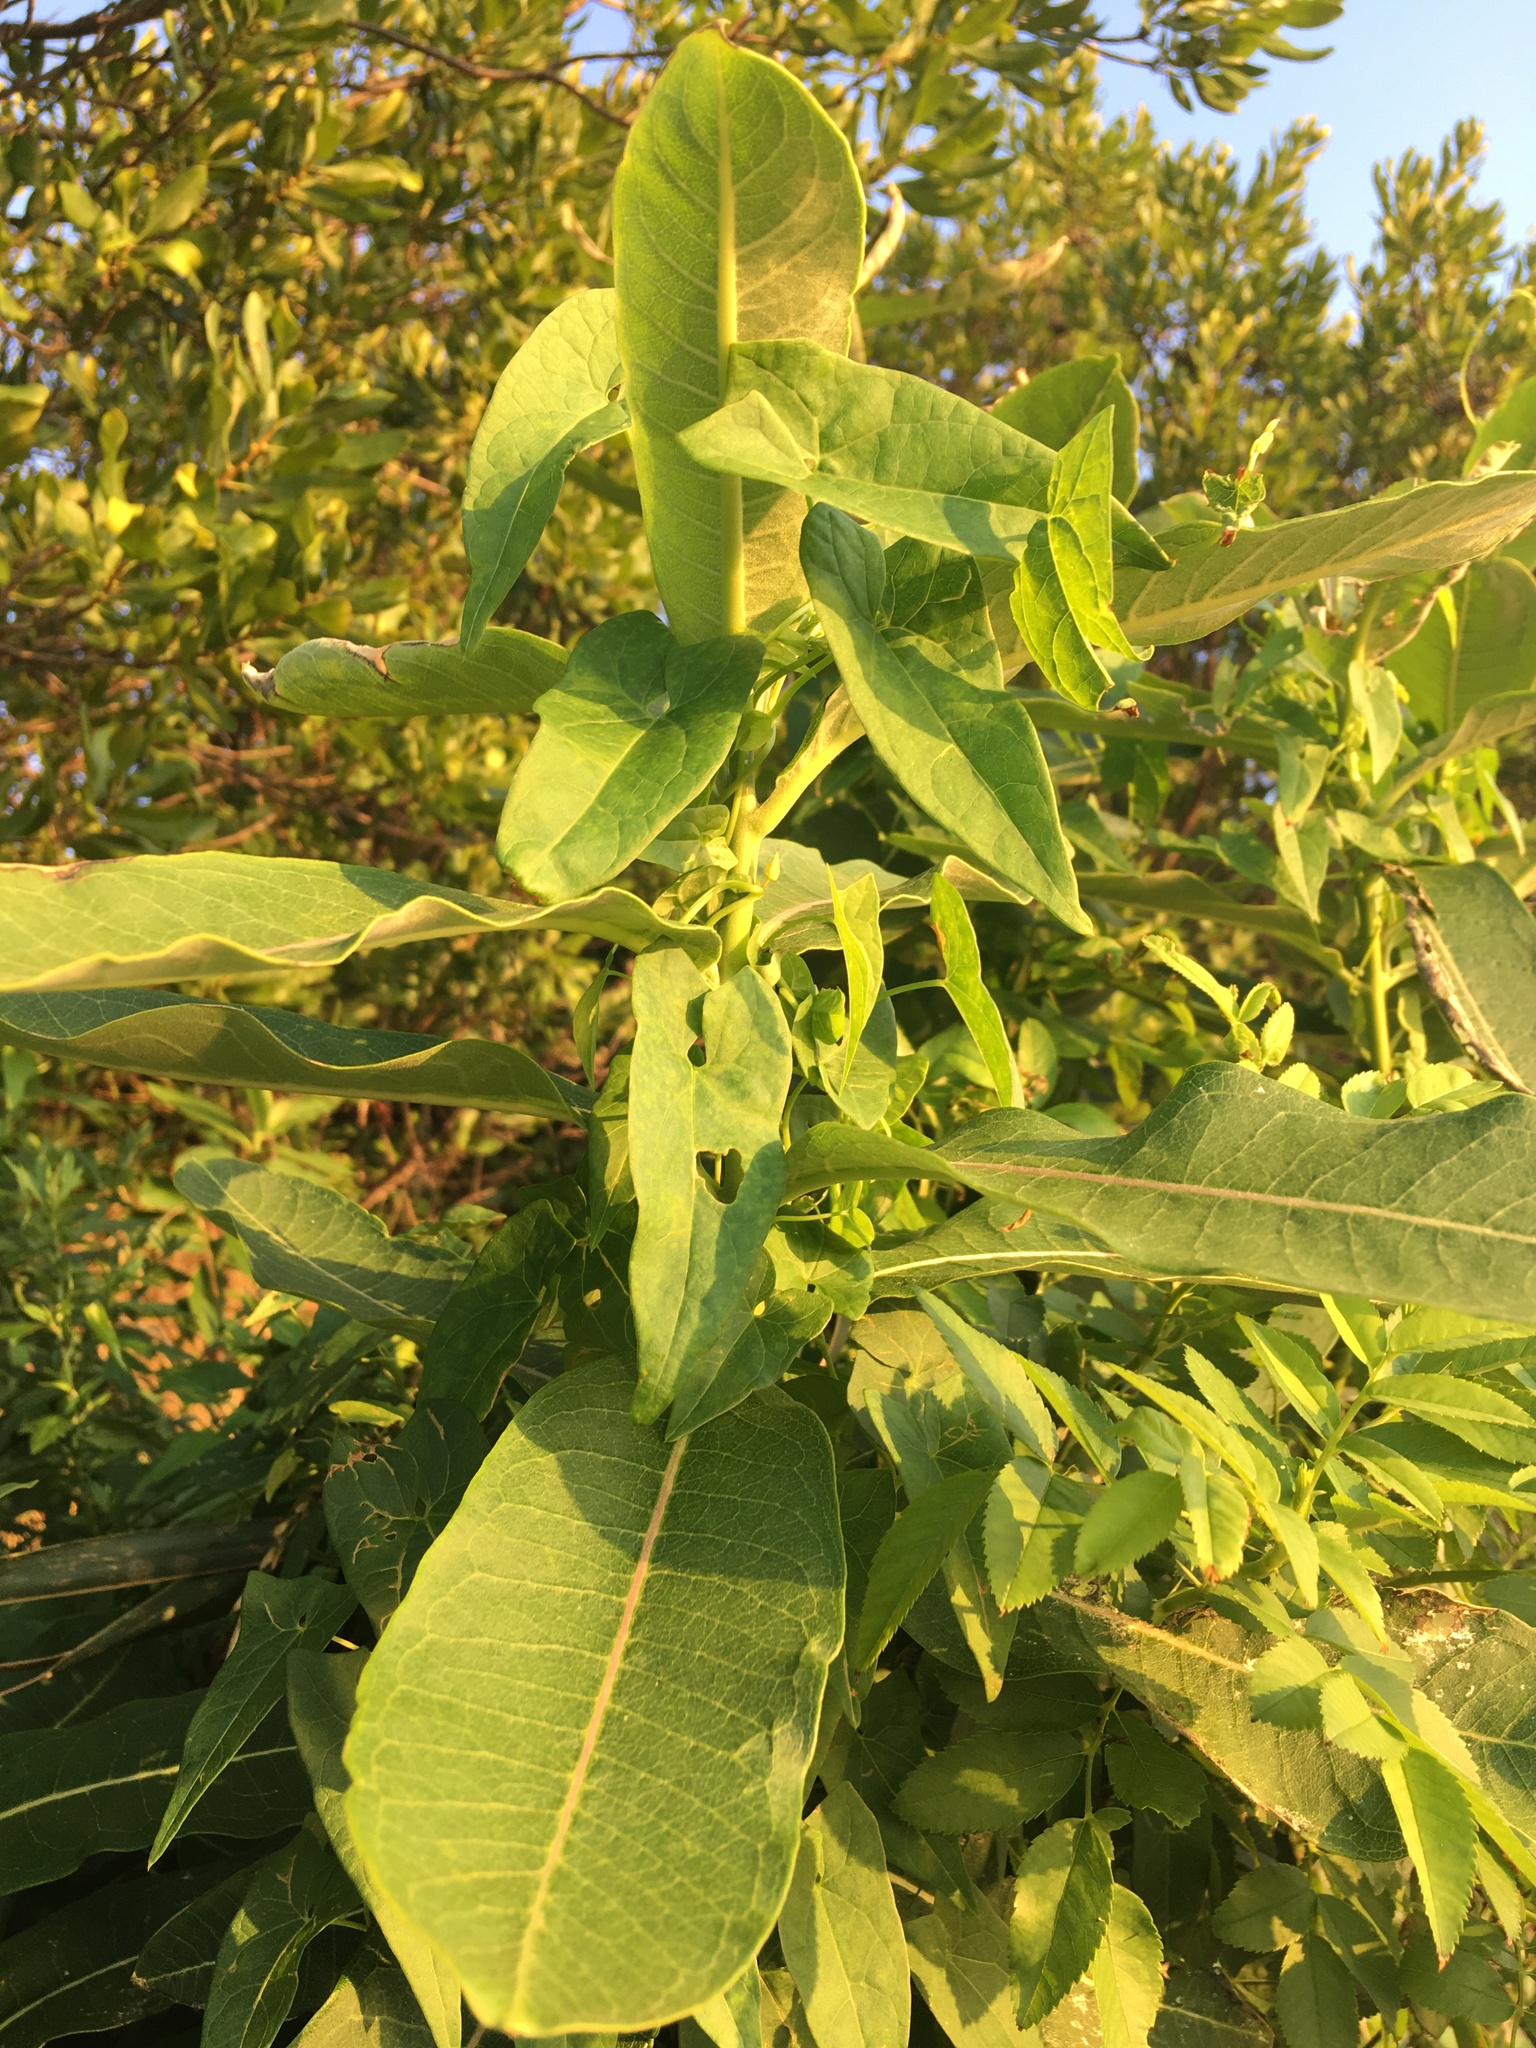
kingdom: Plantae
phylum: Tracheophyta
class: Magnoliopsida
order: Gentianales
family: Apocynaceae
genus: Asclepias
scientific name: Asclepias syriaca
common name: Common milkweed
